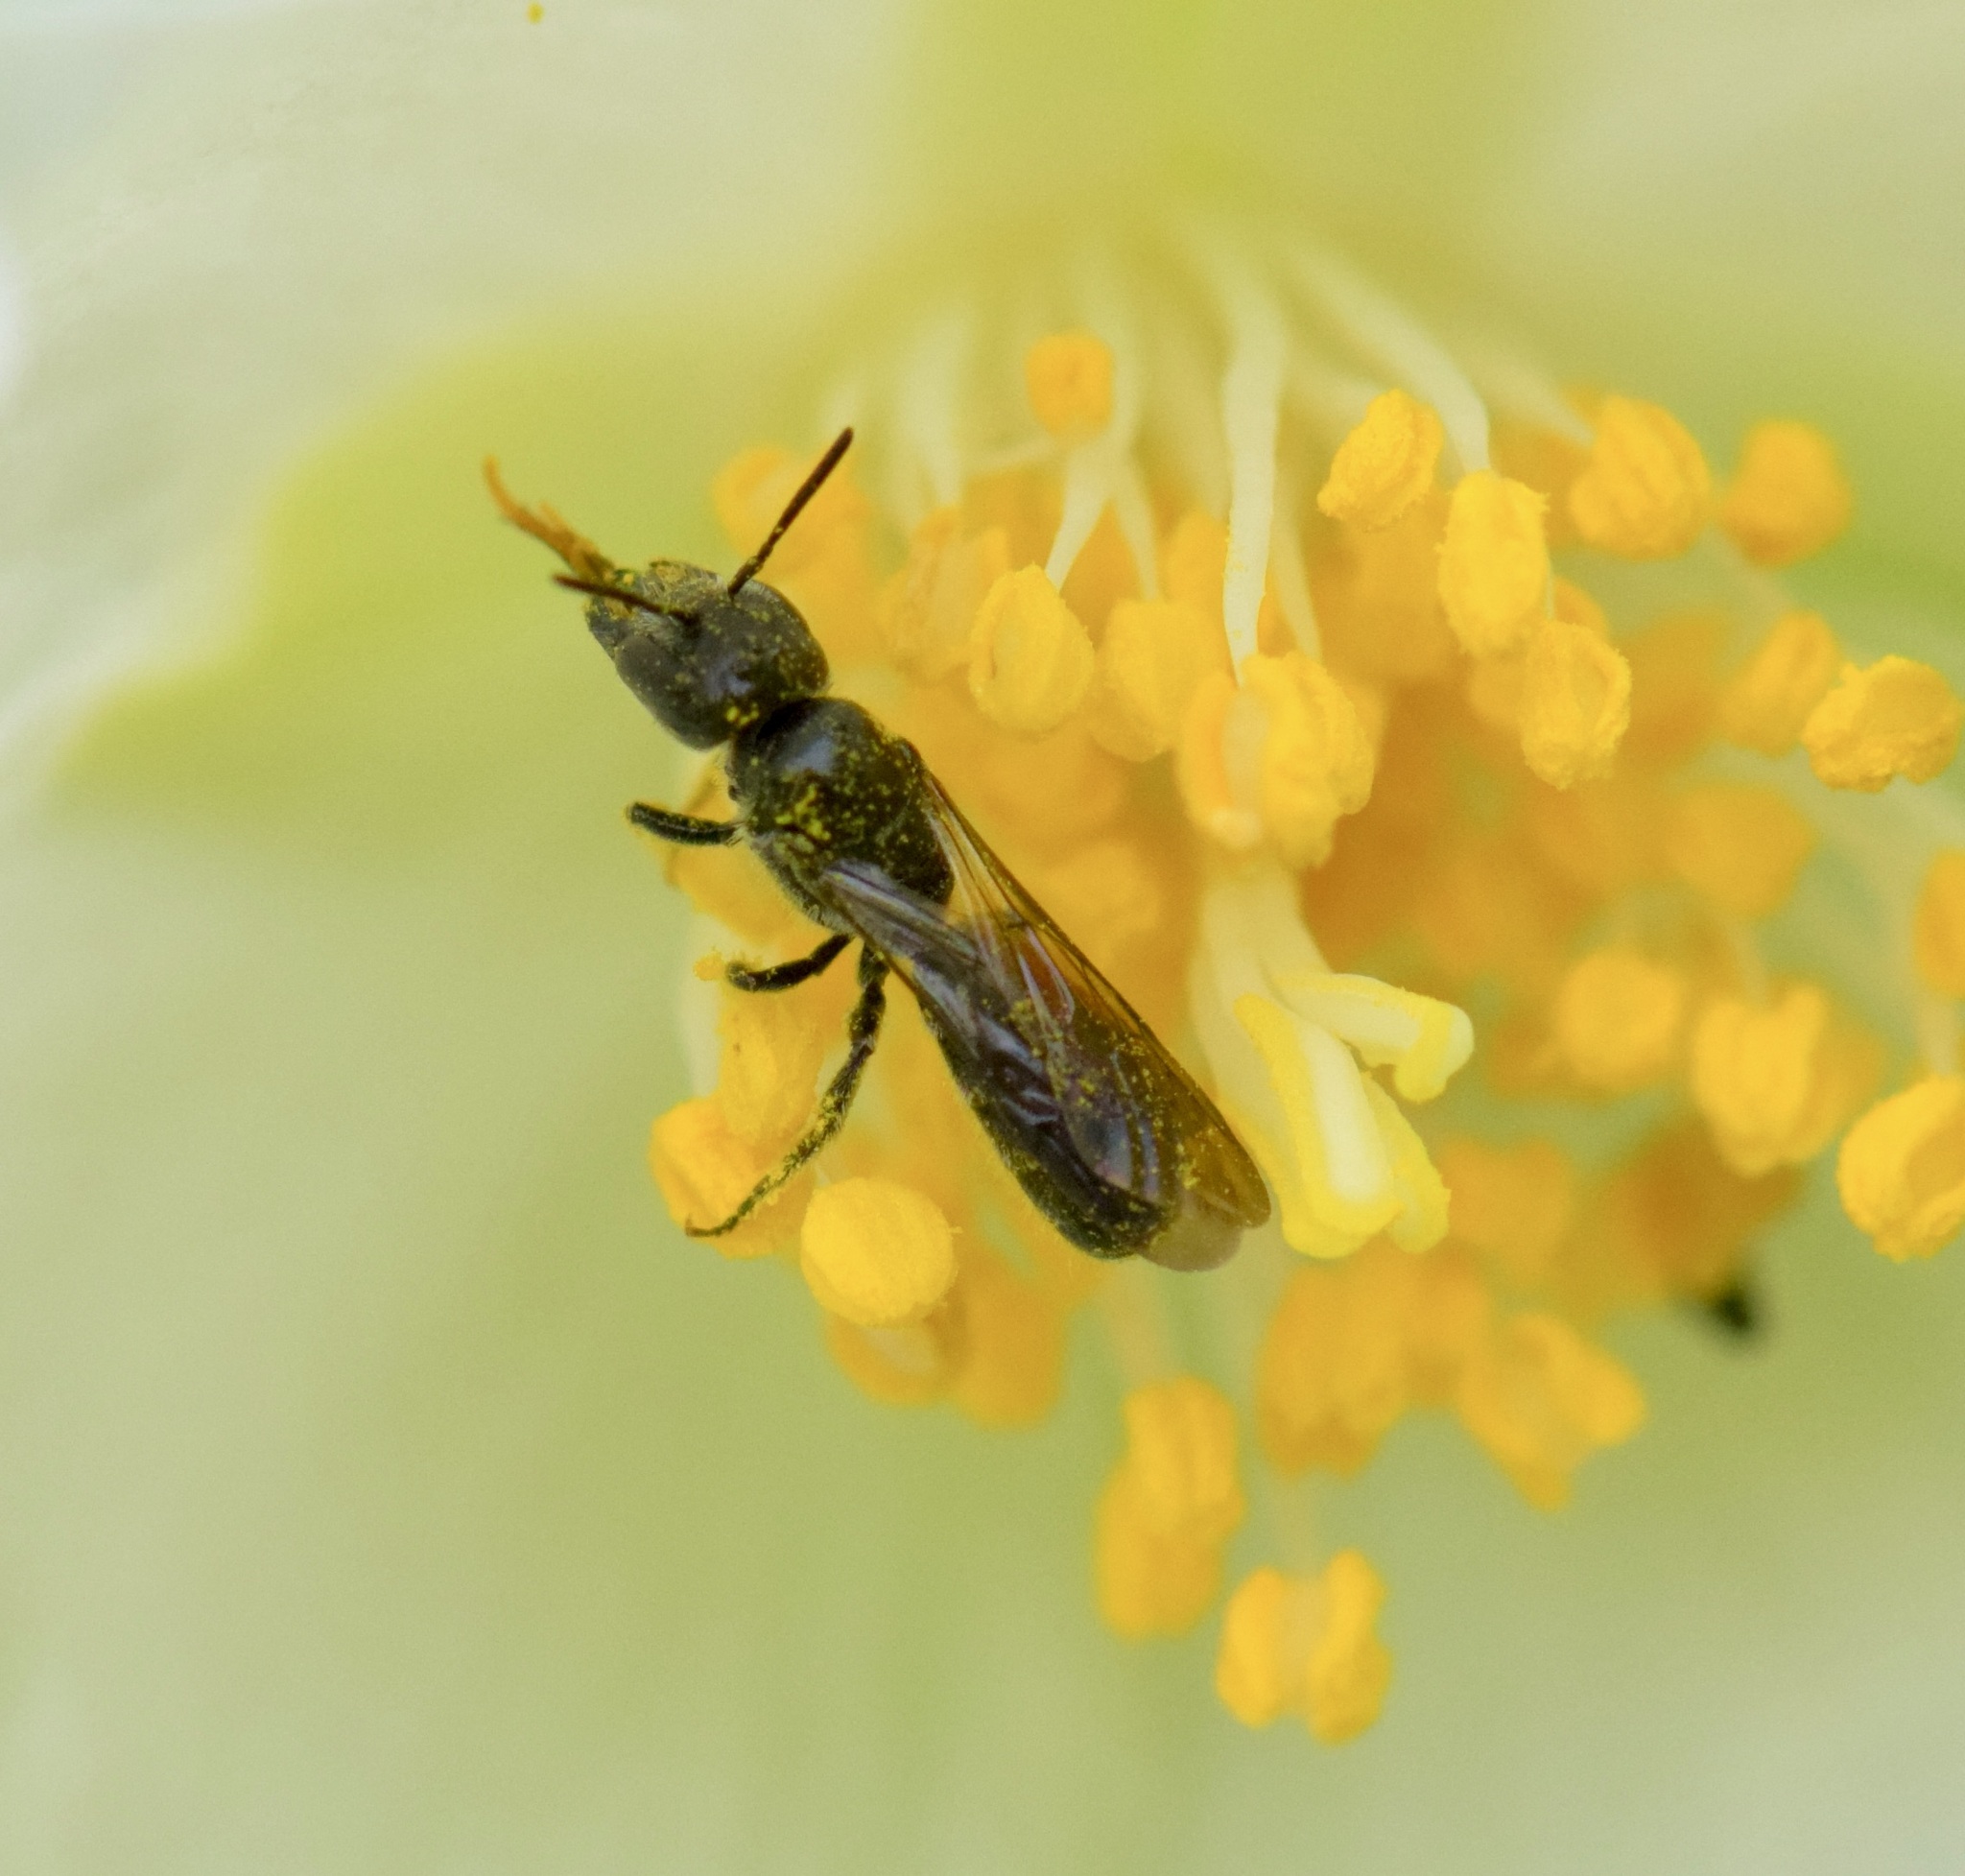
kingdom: Animalia
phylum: Arthropoda
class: Insecta
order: Hymenoptera
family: Megachilidae
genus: Chelostoma
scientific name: Chelostoma philadelphi
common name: Mock-orange scissor bee
